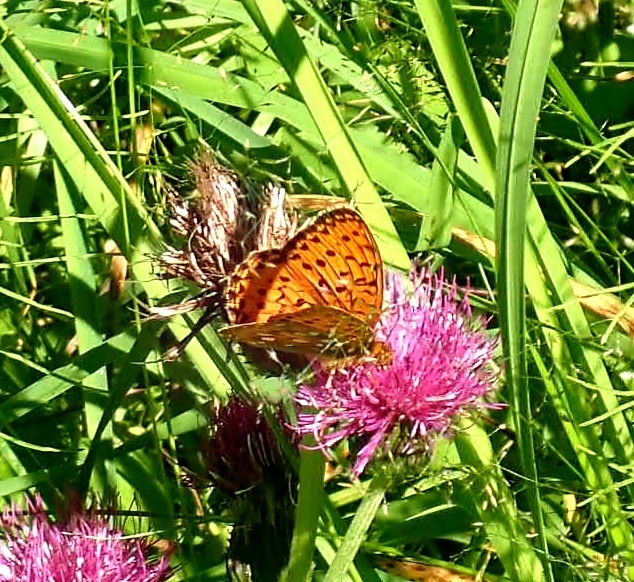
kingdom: Animalia
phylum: Arthropoda
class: Insecta
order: Lepidoptera
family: Nymphalidae
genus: Speyeria
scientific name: Speyeria aglaja
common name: Dark green fritillary
